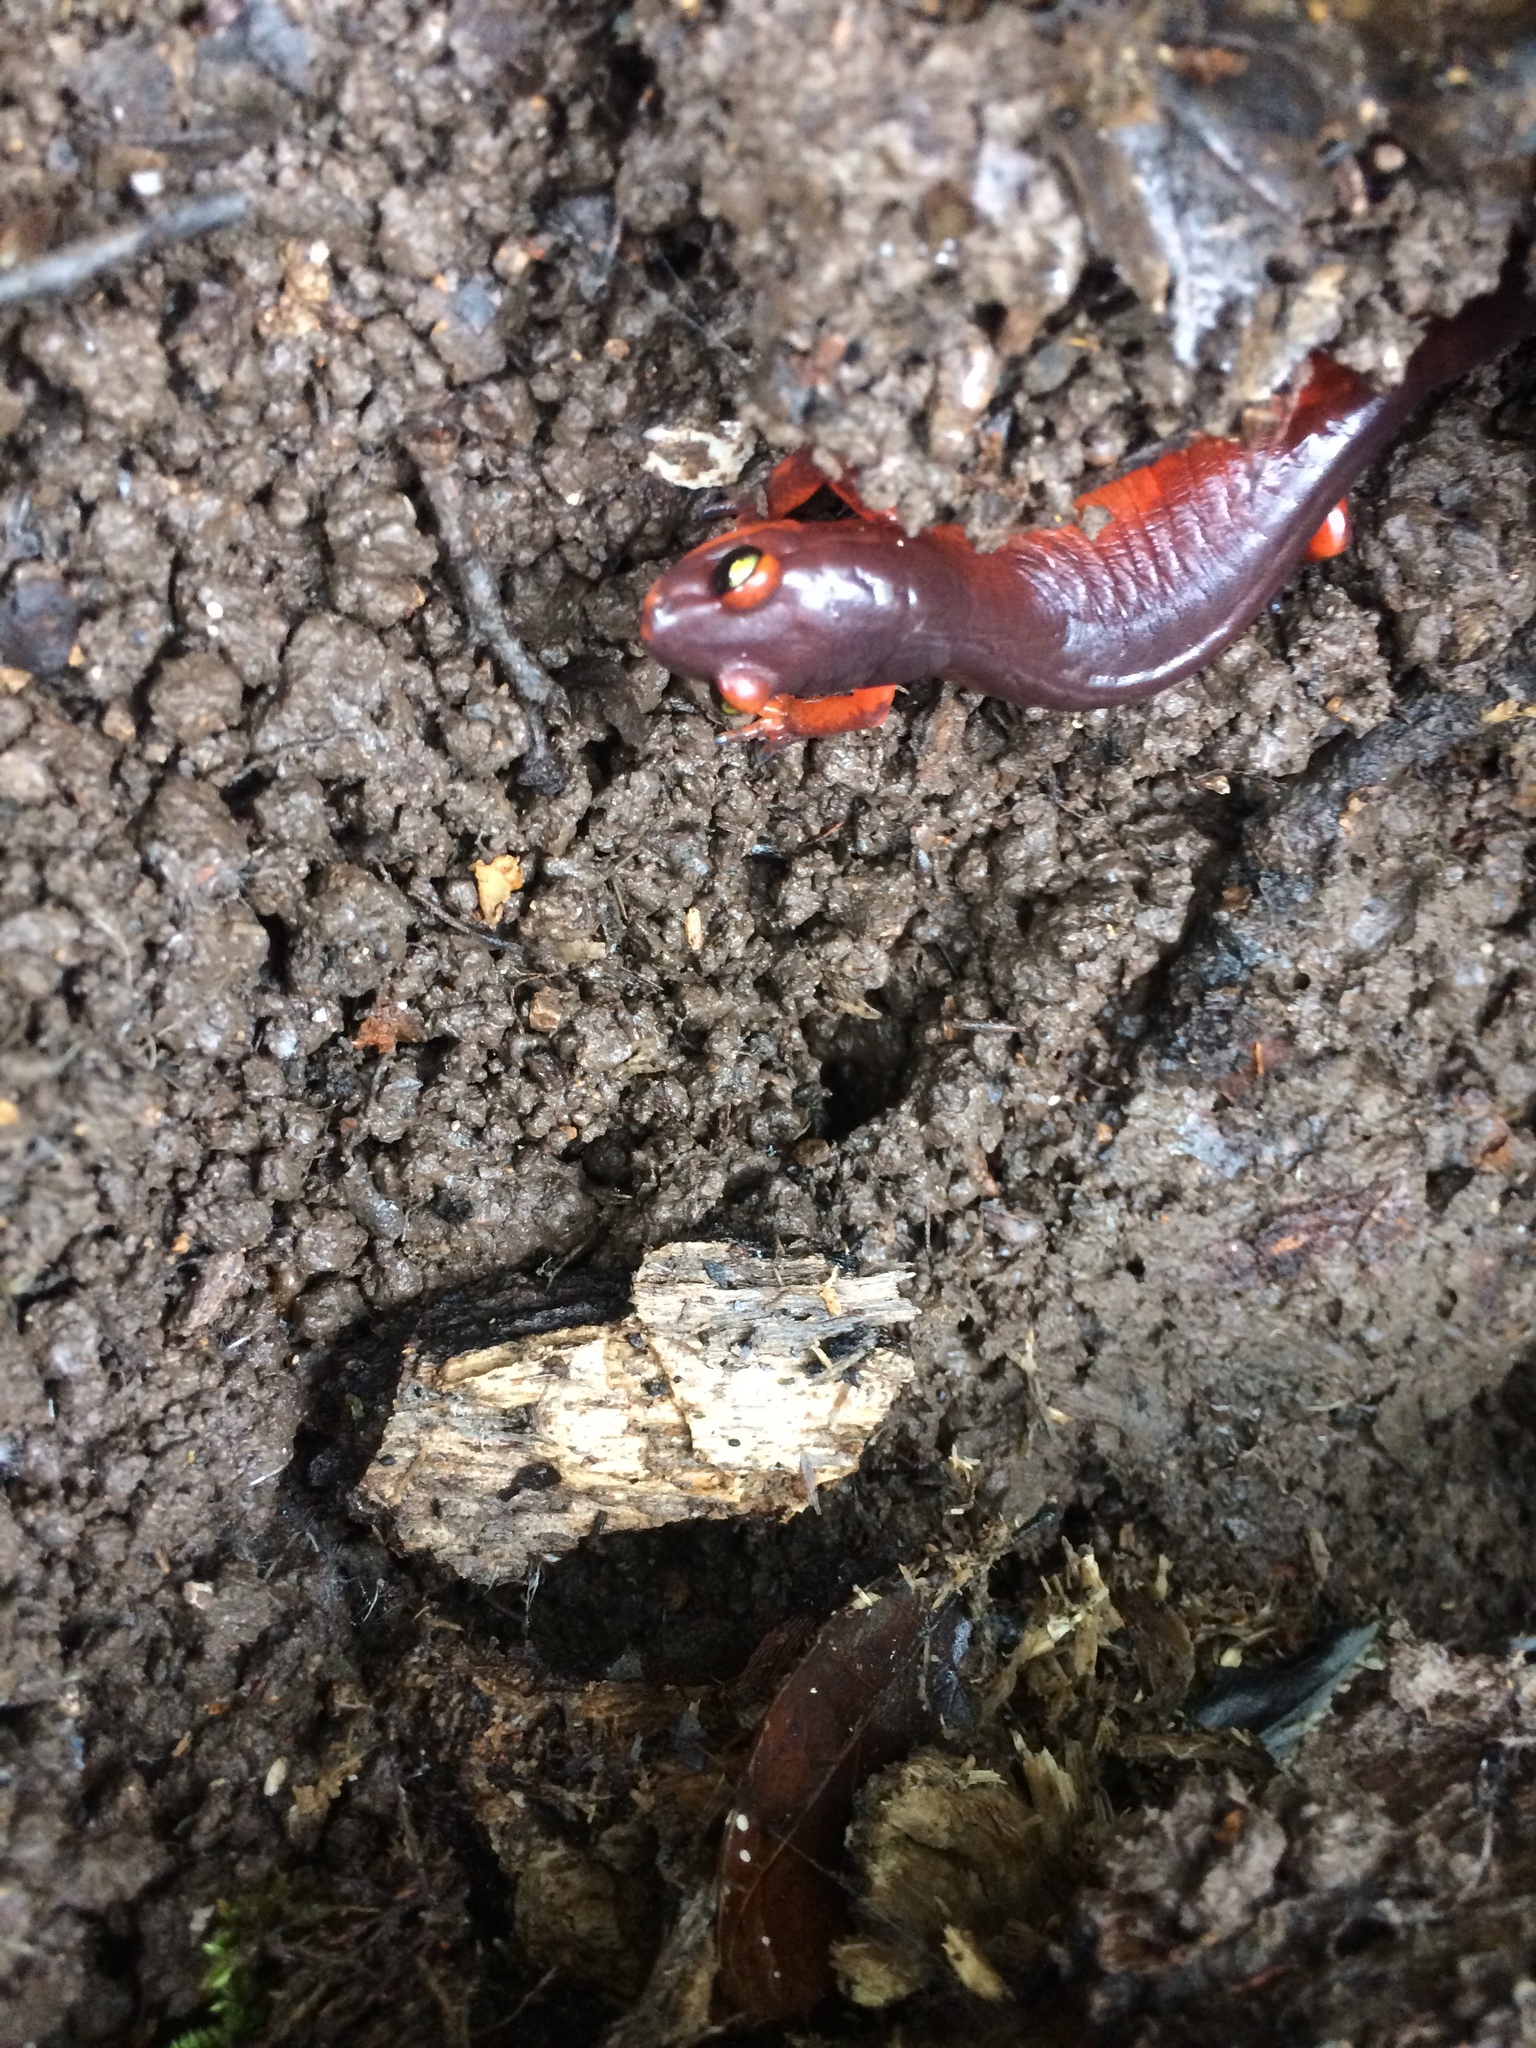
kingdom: Animalia
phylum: Chordata
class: Amphibia
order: Caudata
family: Plethodontidae
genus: Ensatina
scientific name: Ensatina eschscholtzii
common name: Ensatina
